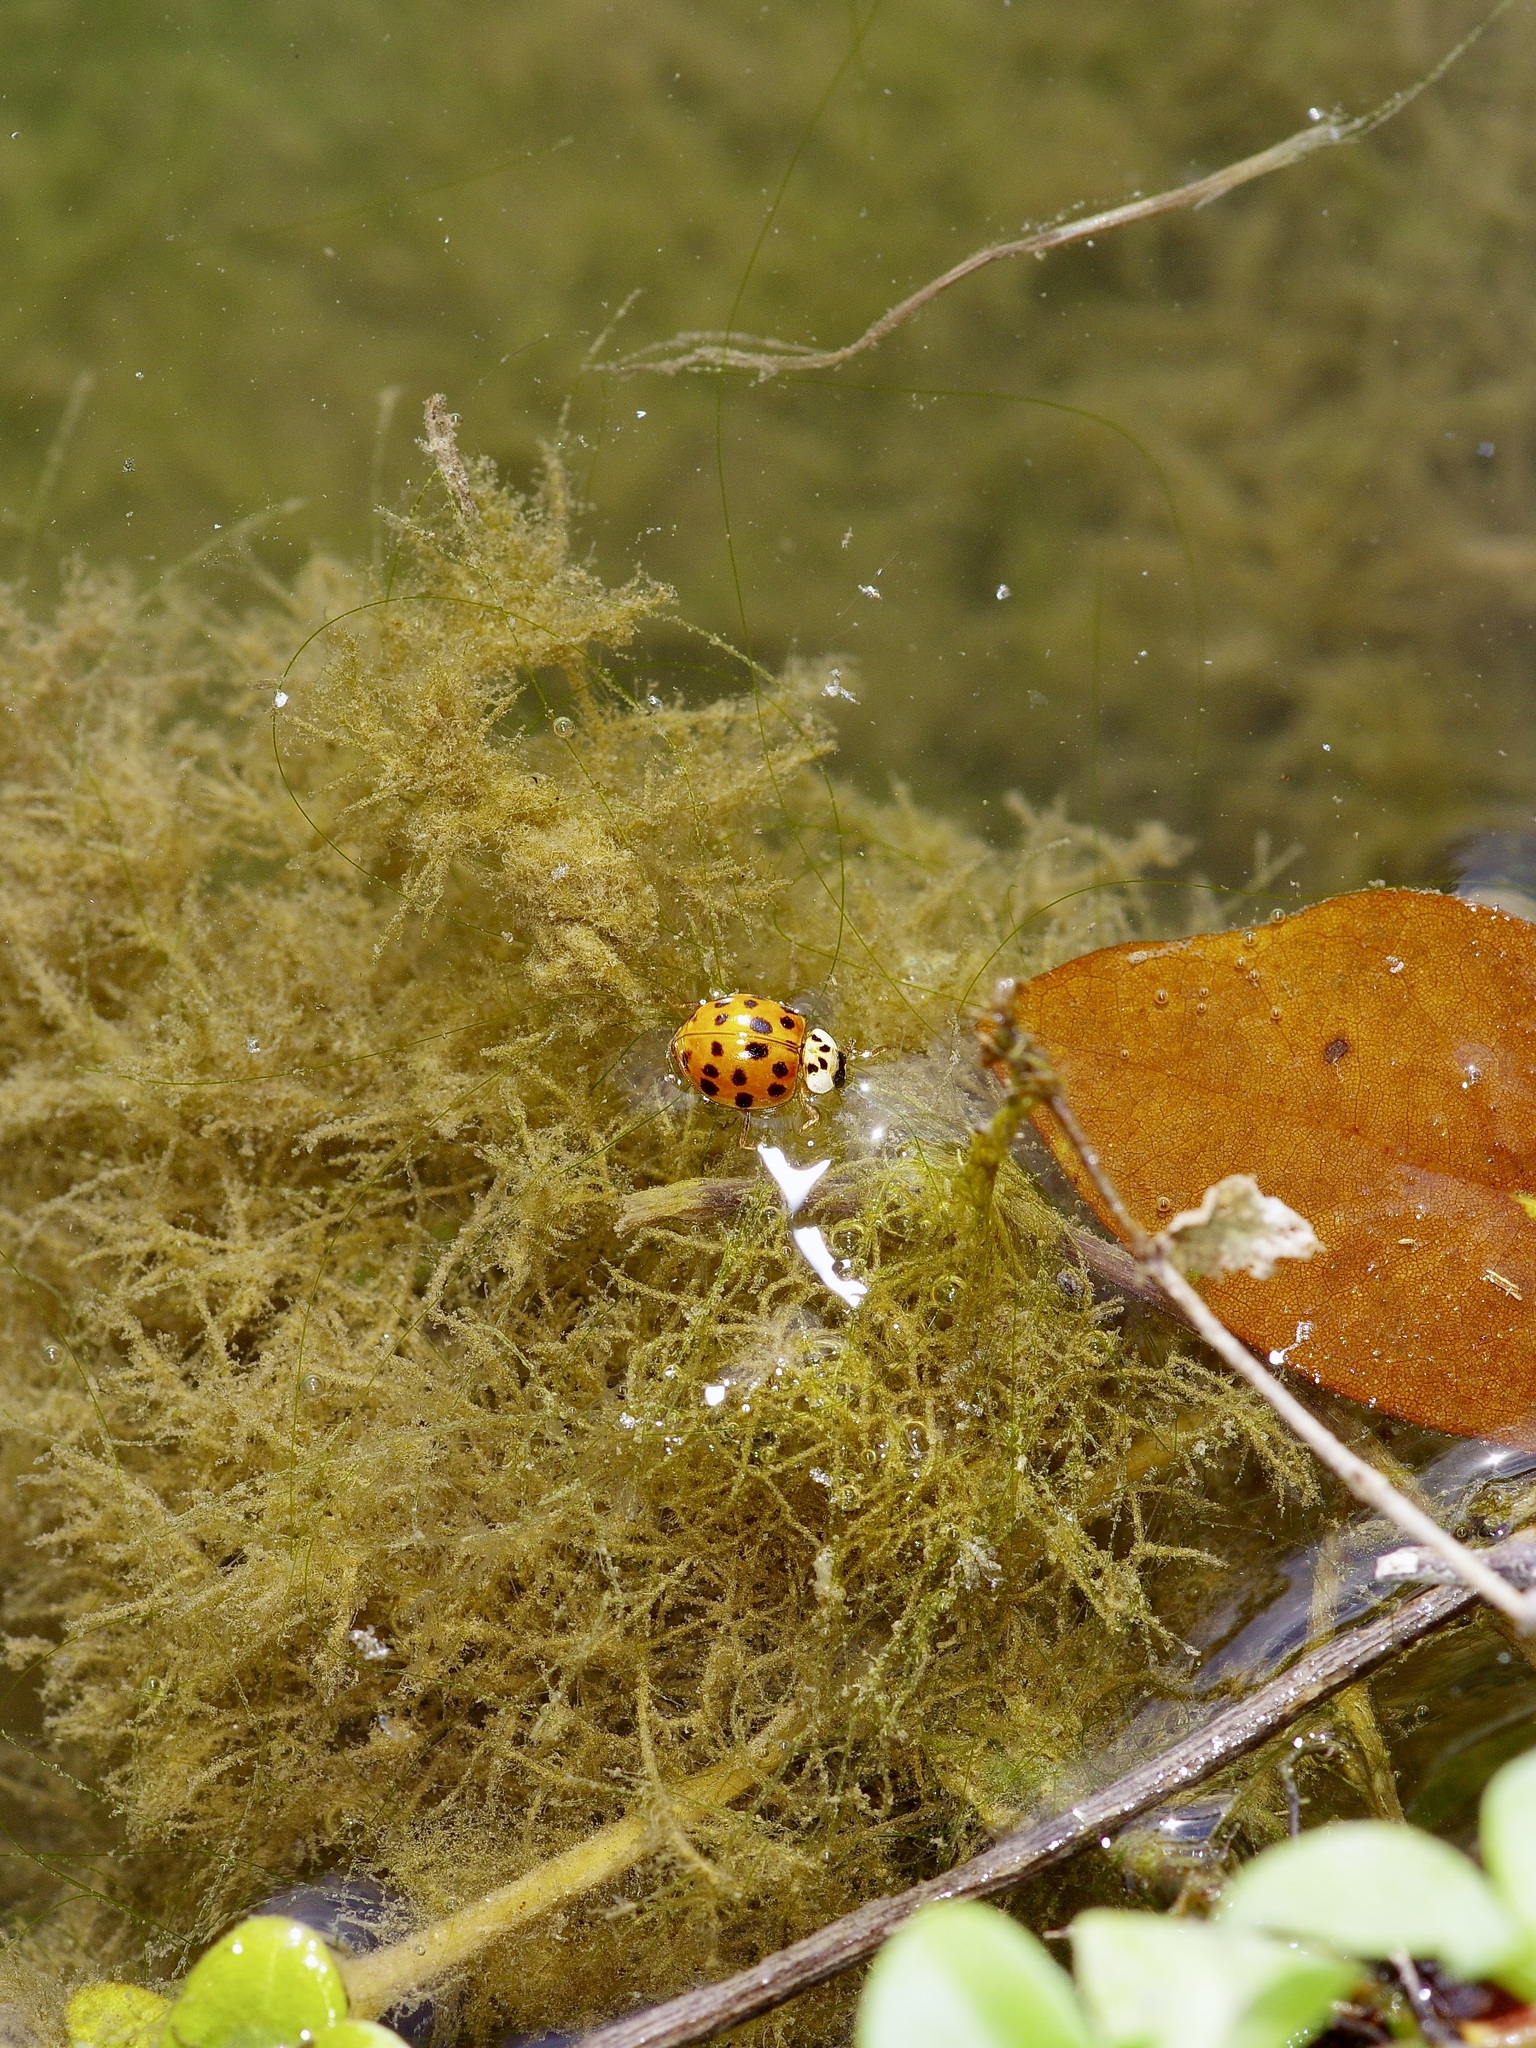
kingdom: Animalia
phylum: Arthropoda
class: Insecta
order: Coleoptera
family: Coccinellidae
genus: Harmonia
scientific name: Harmonia axyridis
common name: Harlequin ladybird
